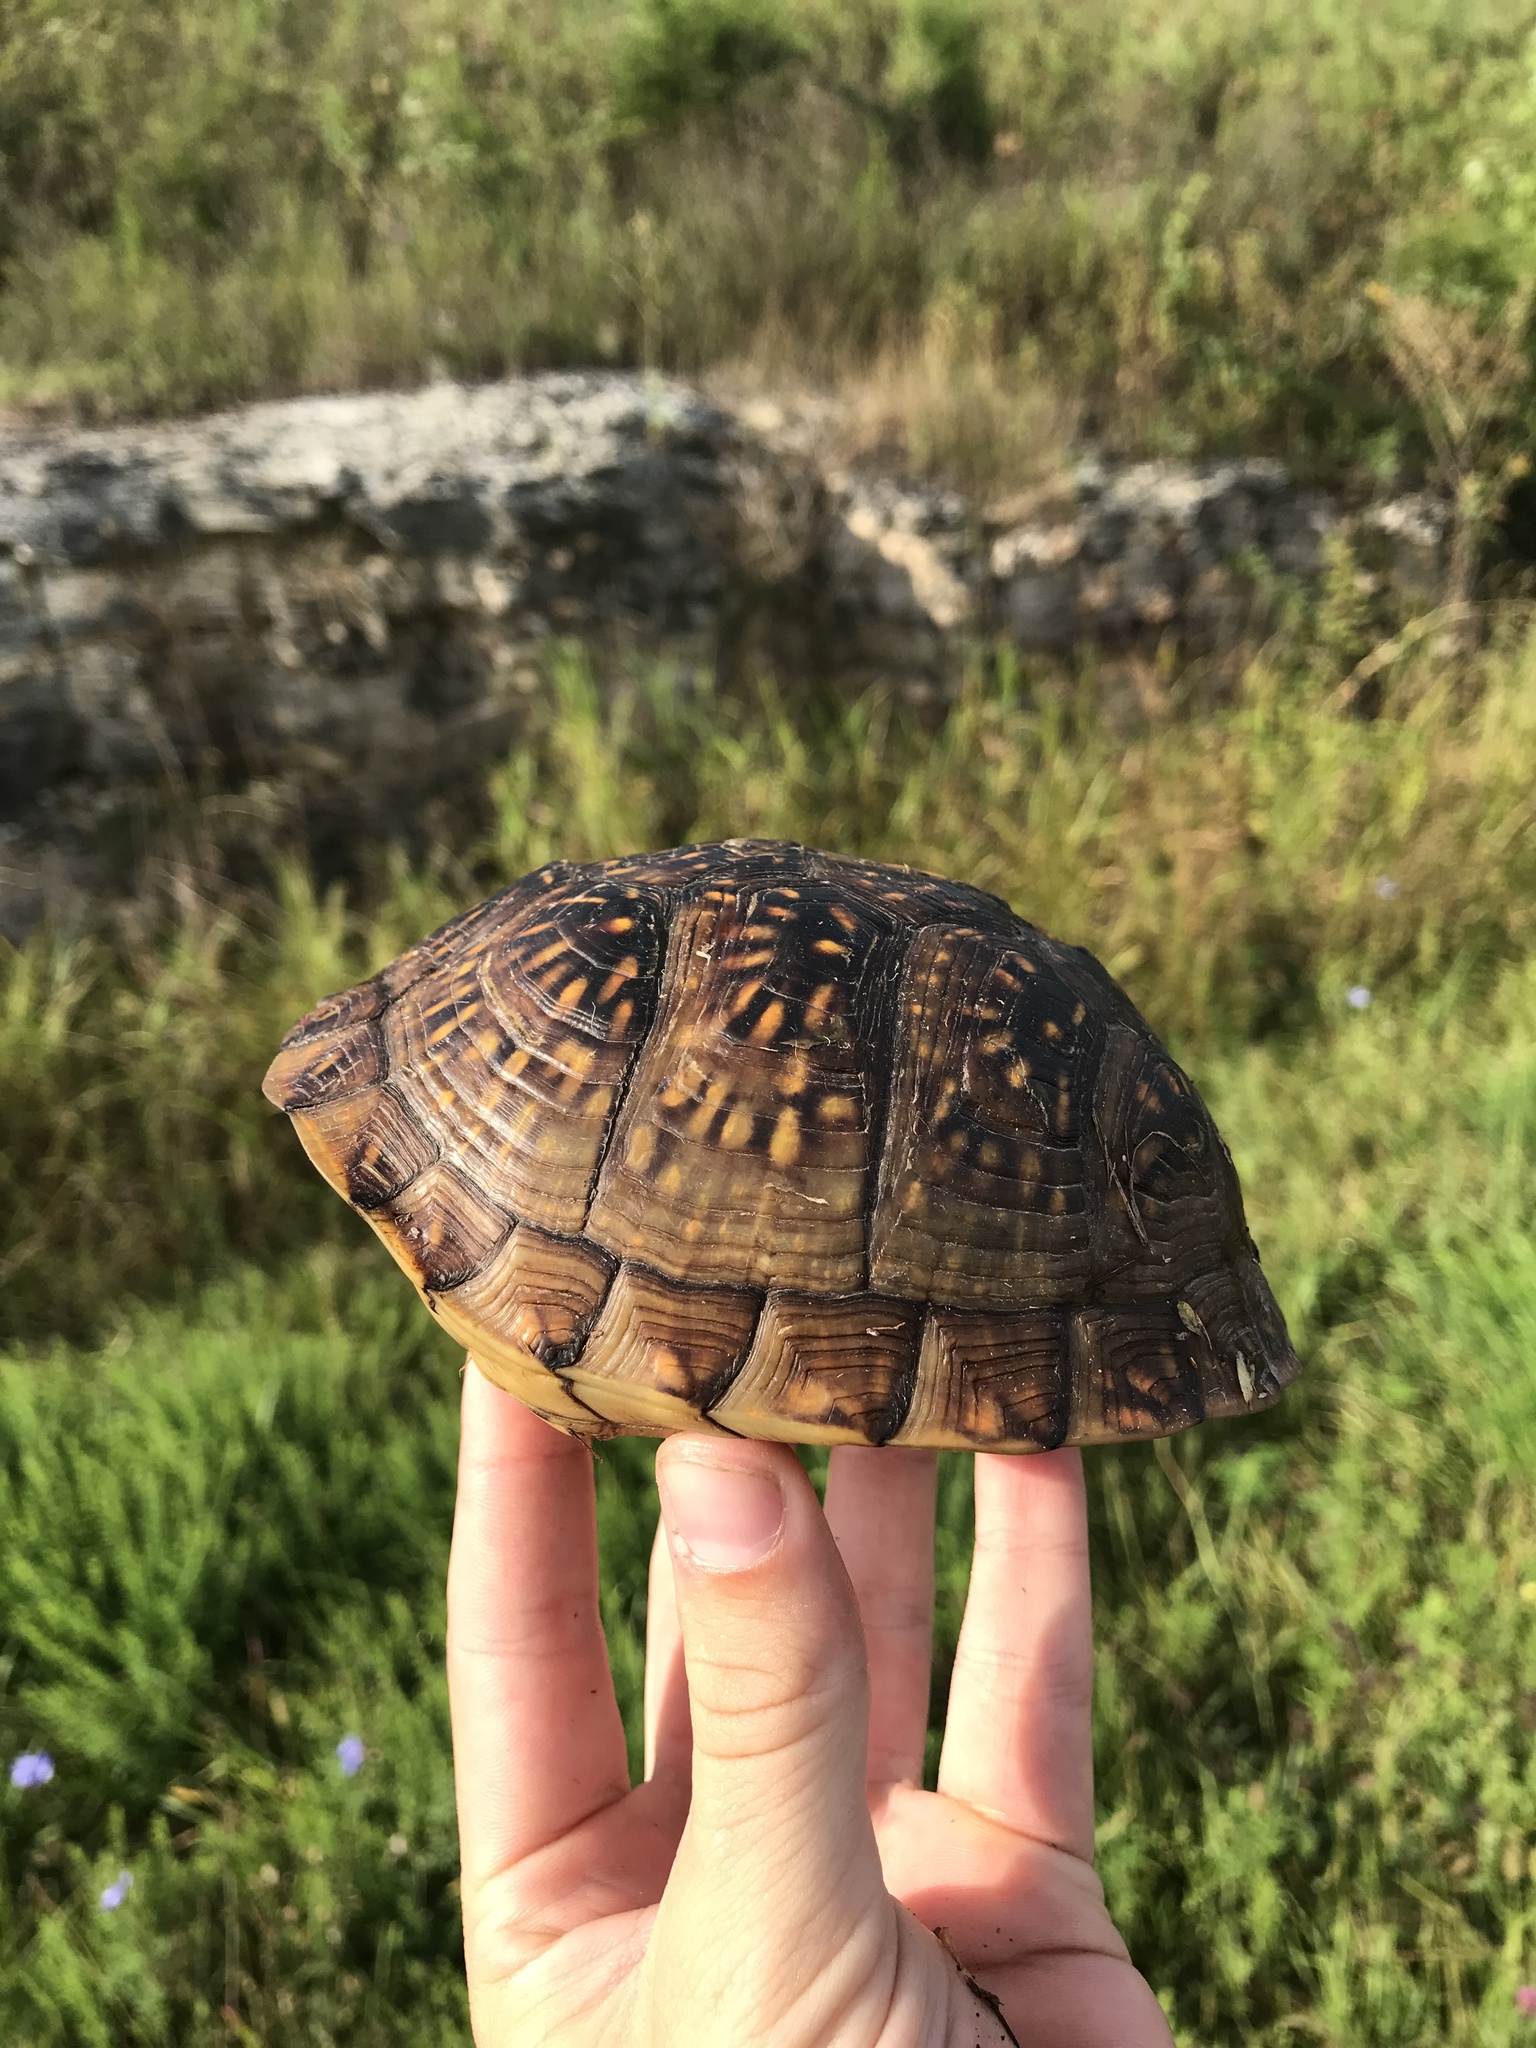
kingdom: Animalia
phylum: Chordata
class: Testudines
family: Emydidae
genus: Terrapene
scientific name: Terrapene carolina
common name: Common box turtle
